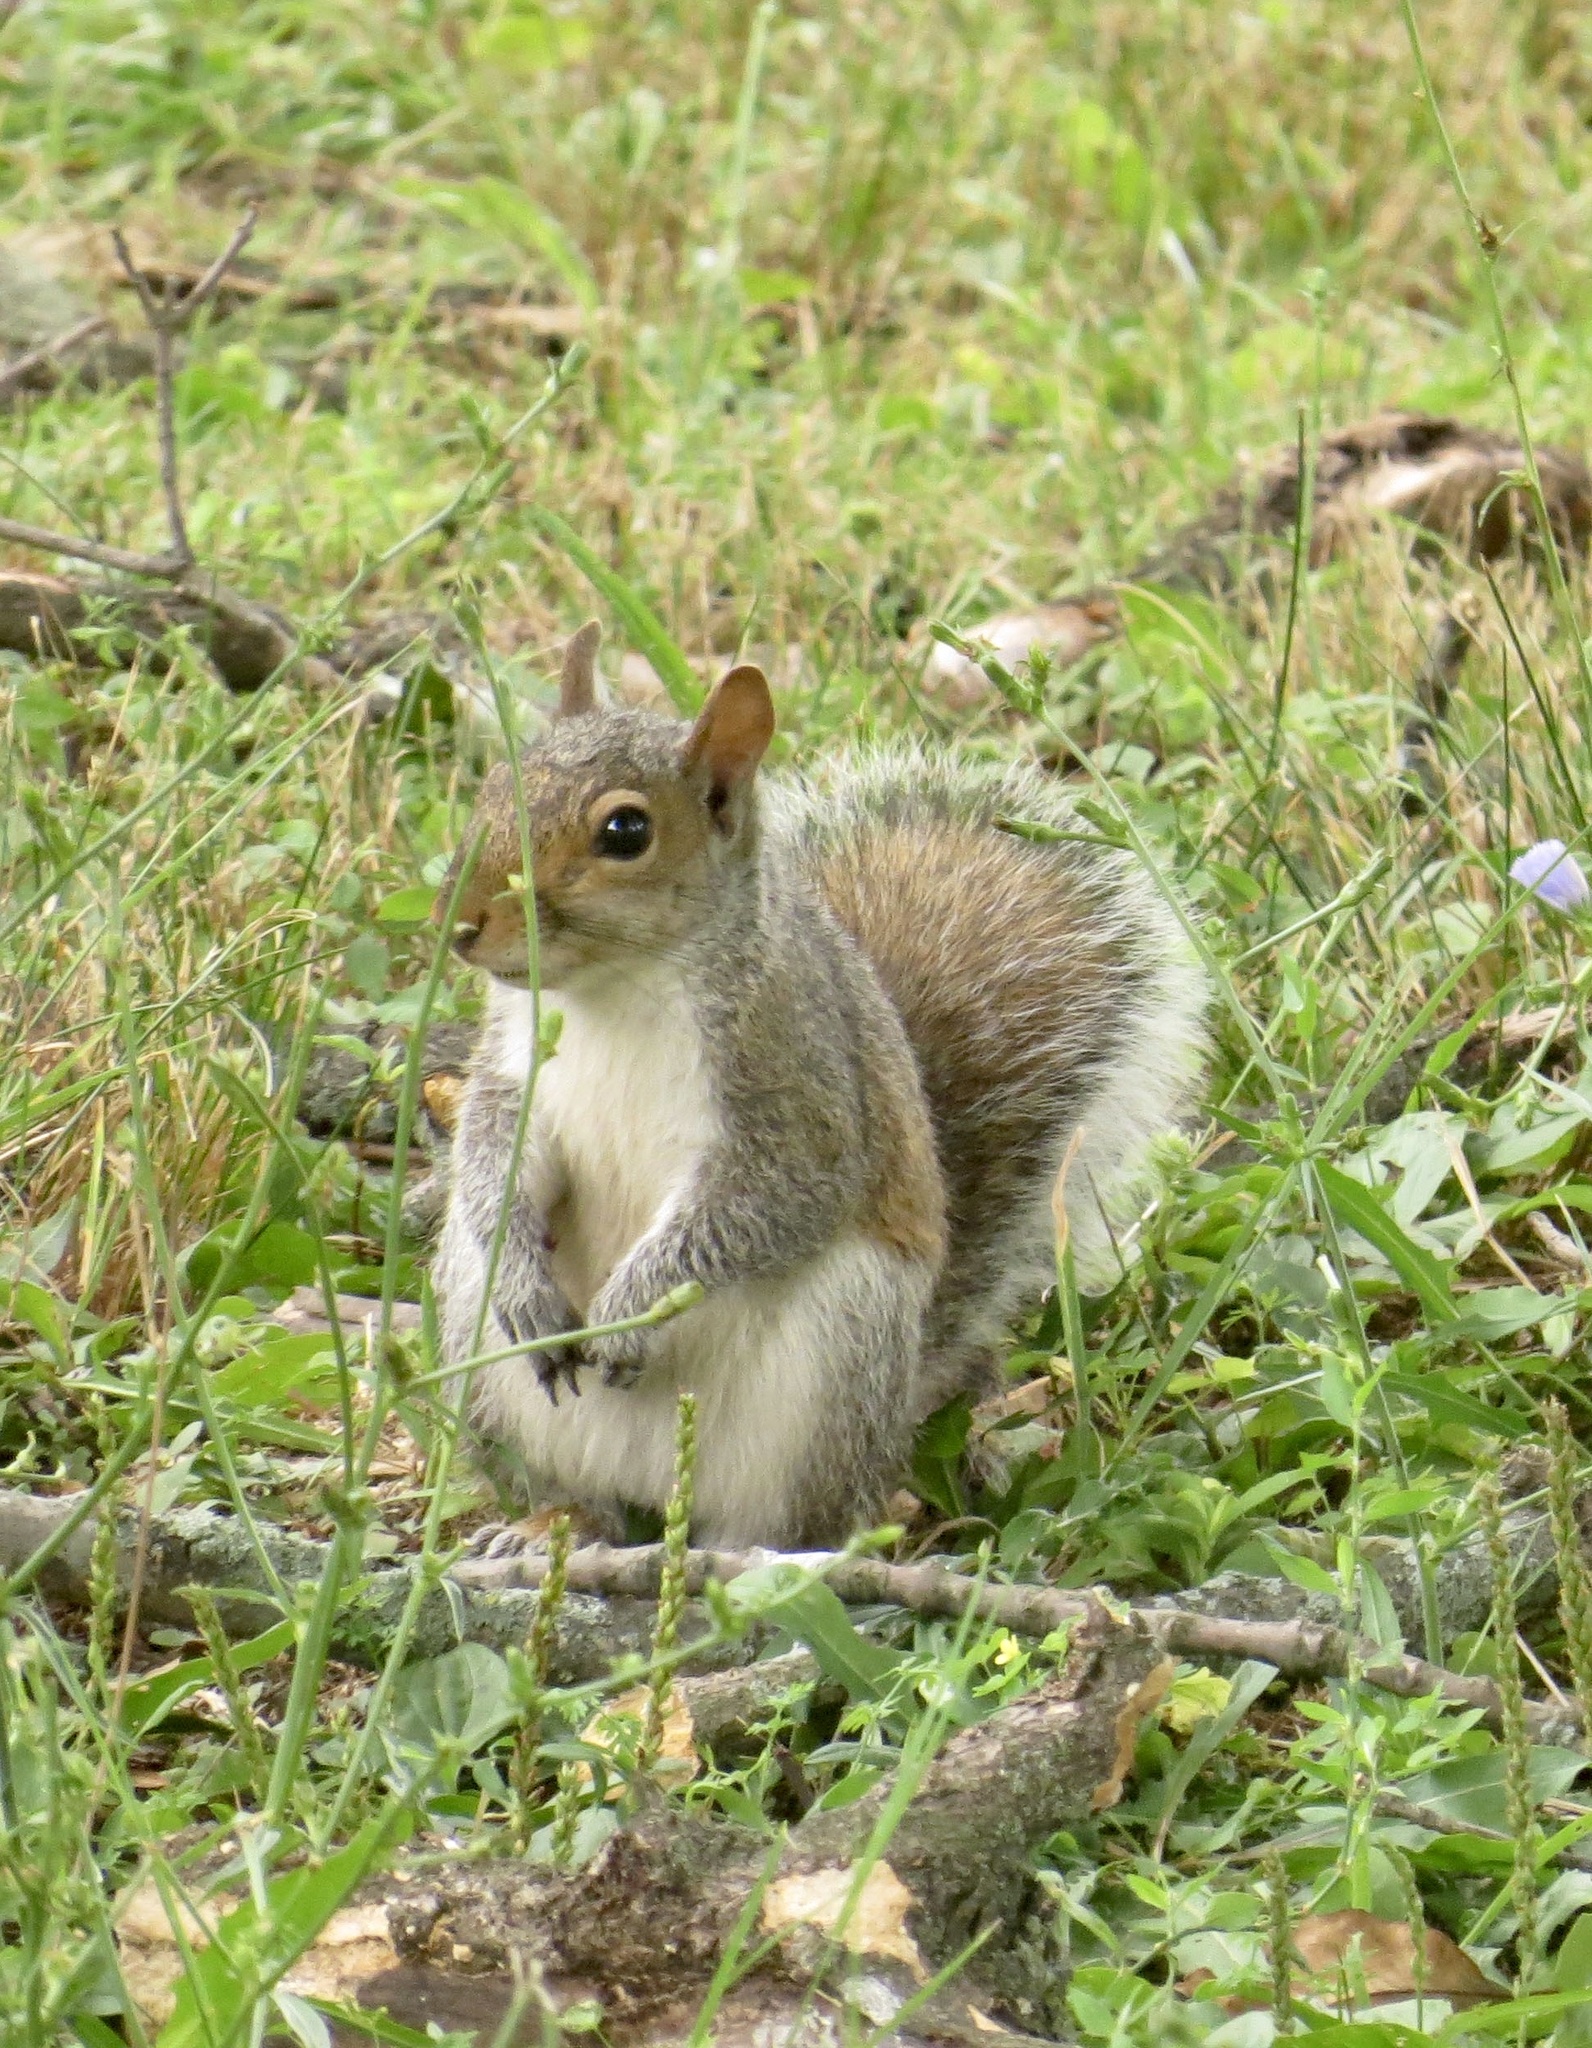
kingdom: Animalia
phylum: Chordata
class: Mammalia
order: Rodentia
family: Sciuridae
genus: Sciurus
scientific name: Sciurus carolinensis
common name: Eastern gray squirrel
